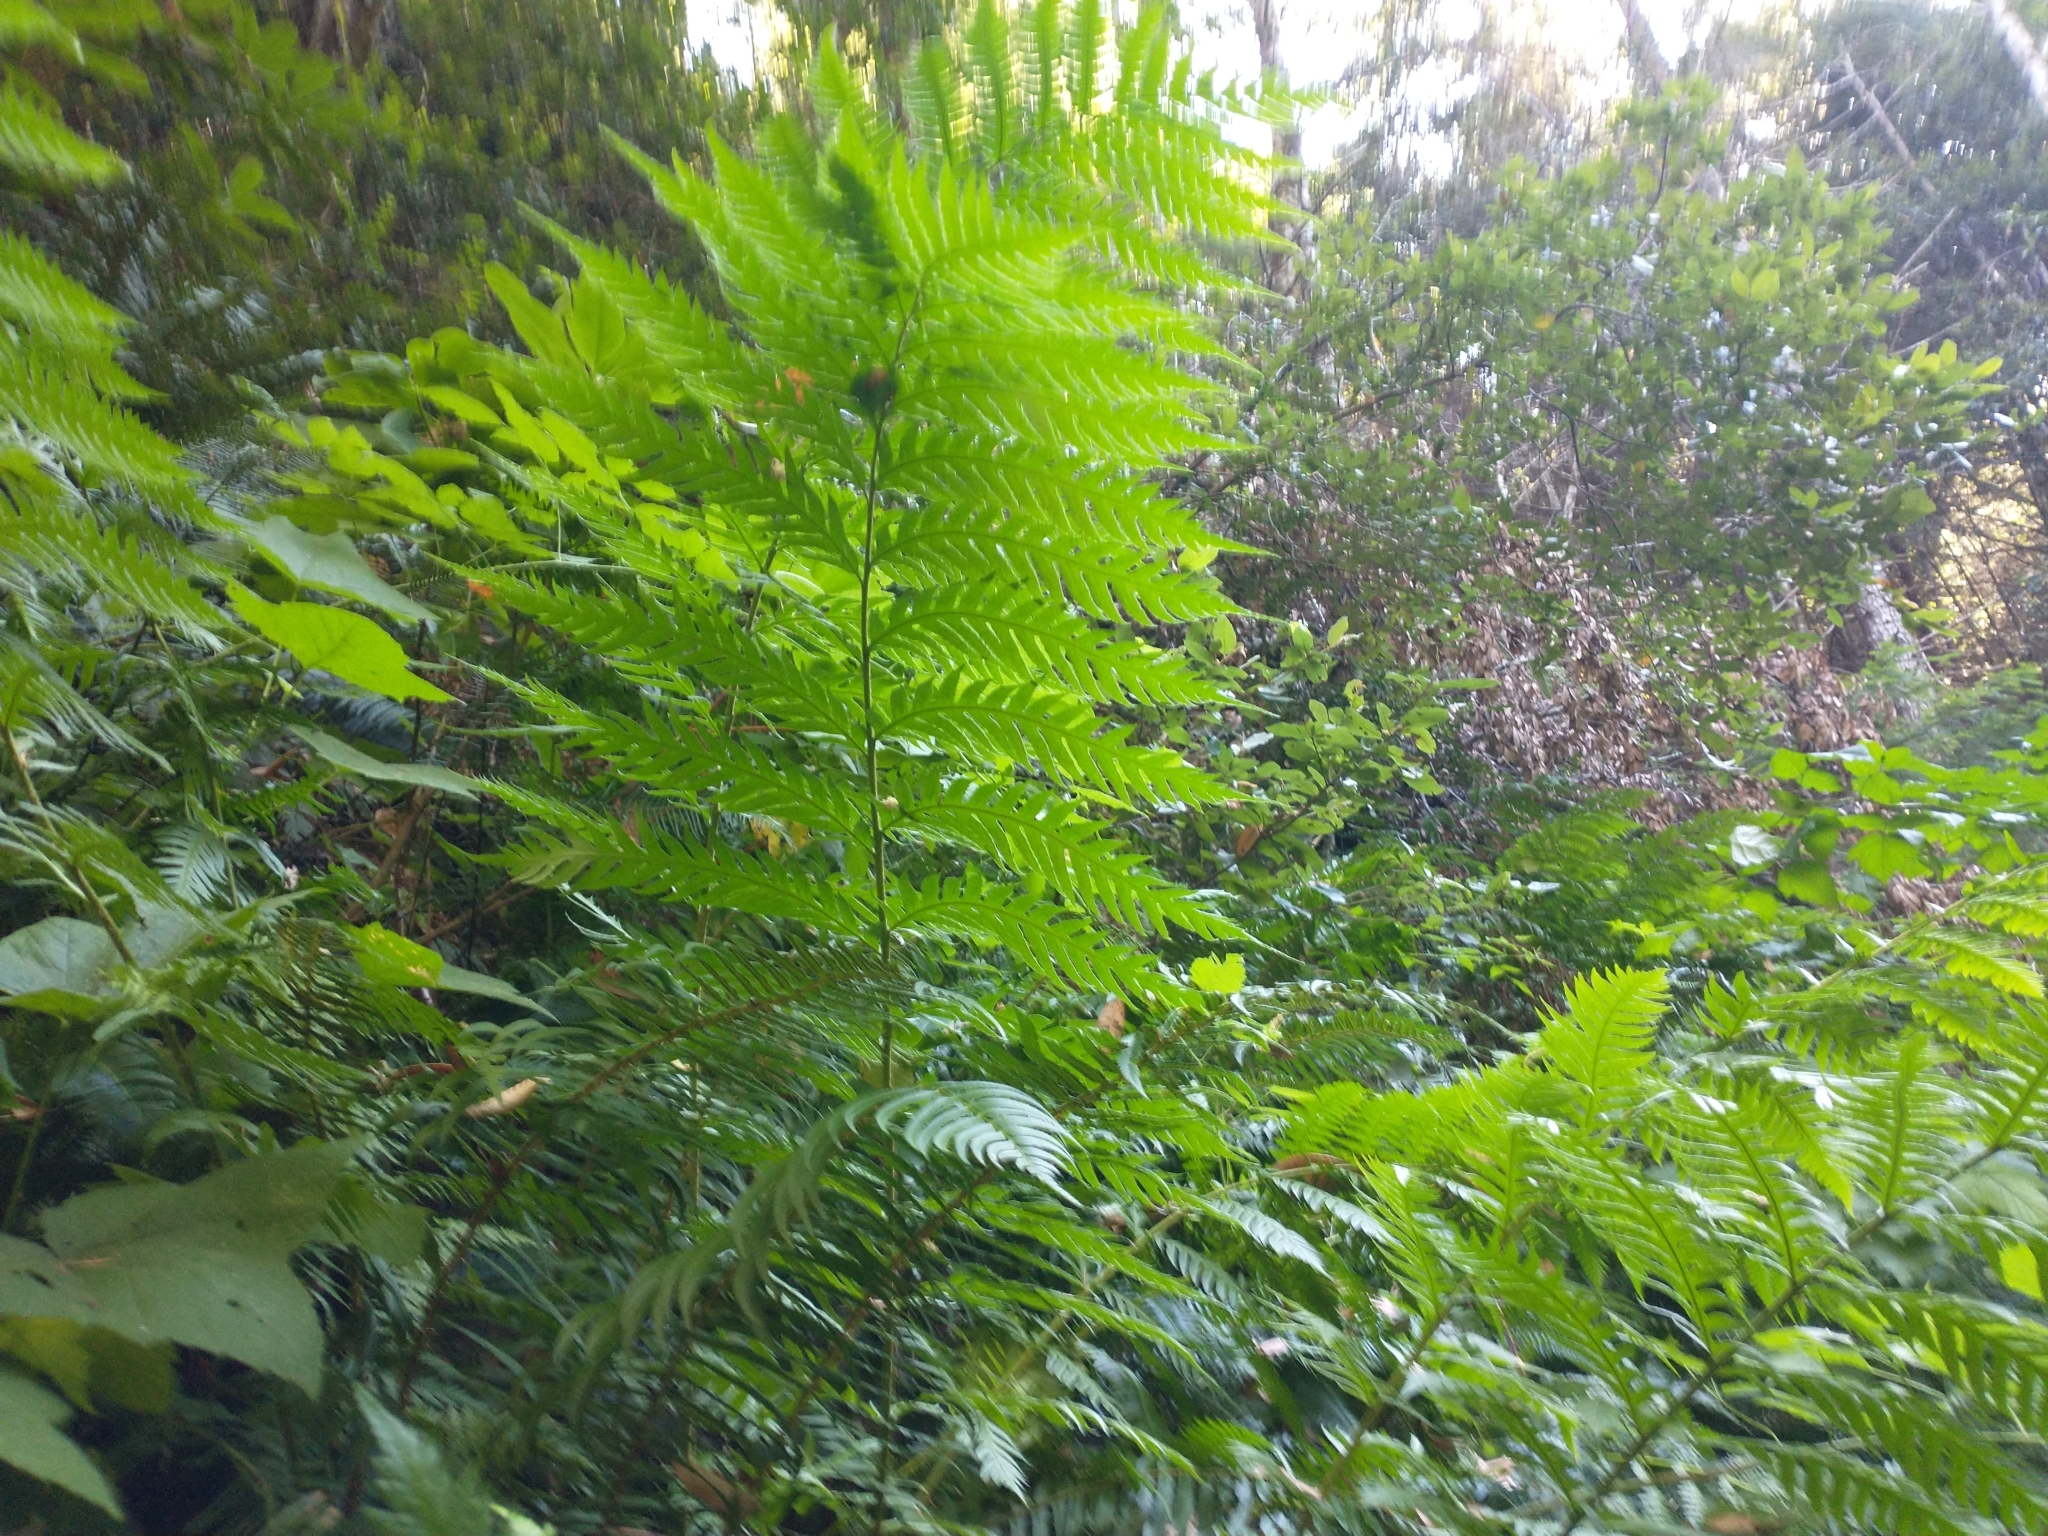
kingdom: Plantae
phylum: Tracheophyta
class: Polypodiopsida
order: Polypodiales
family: Blechnaceae
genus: Woodwardia
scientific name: Woodwardia fimbriata
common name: Giant chain fern
